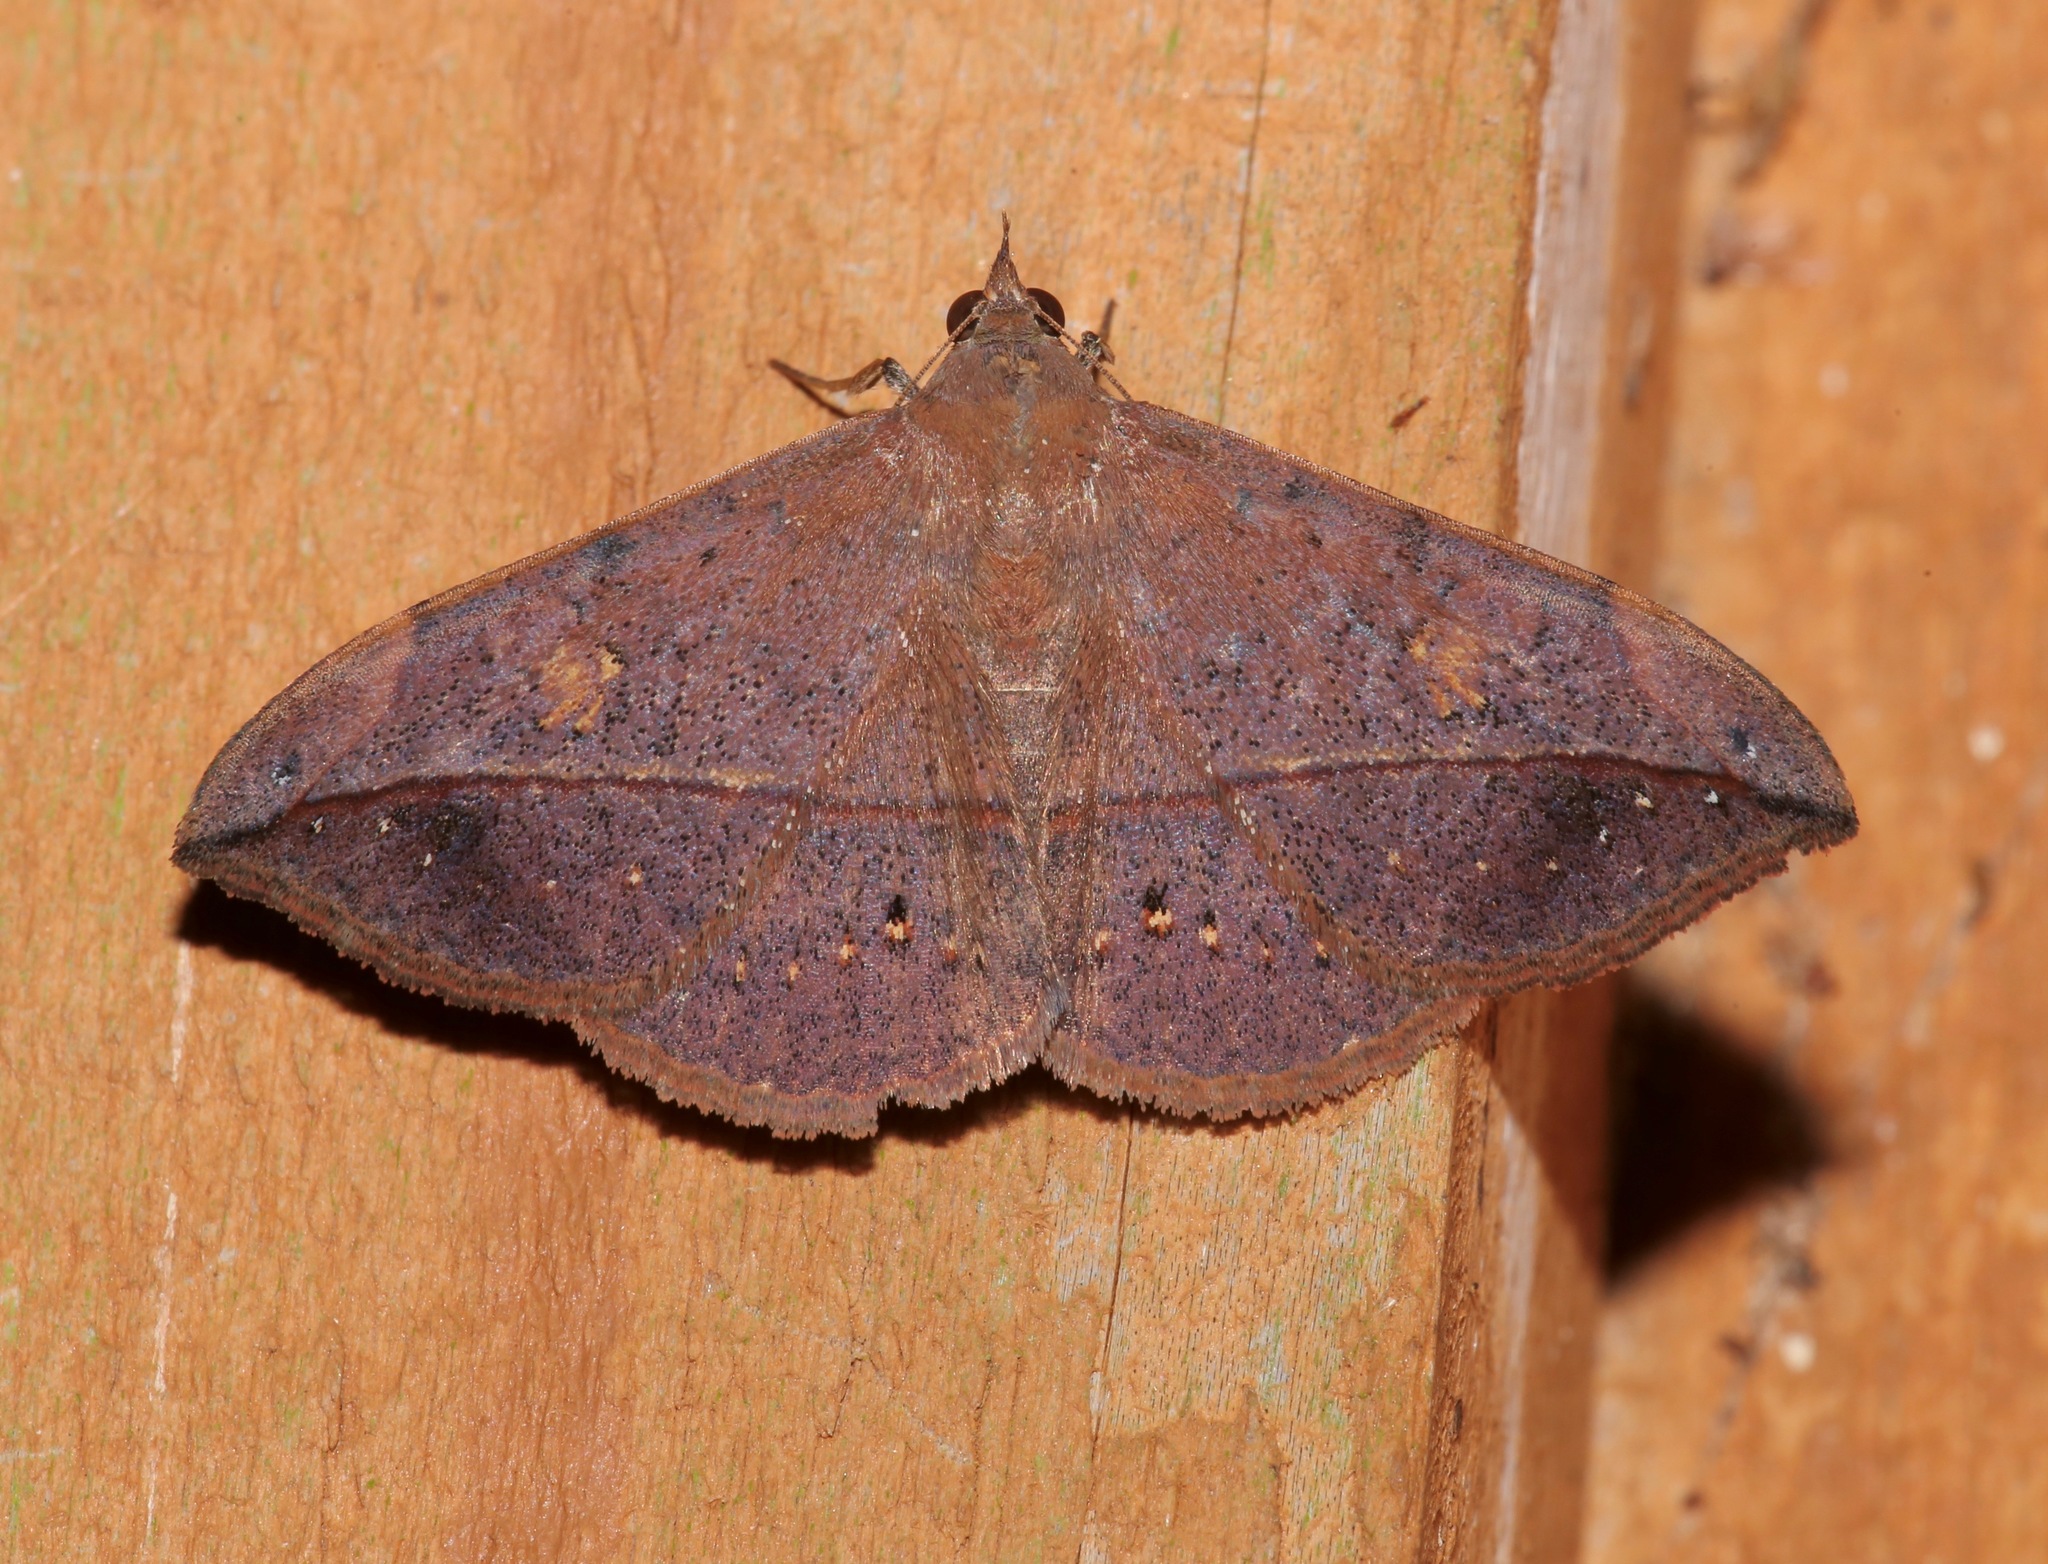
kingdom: Animalia
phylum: Arthropoda
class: Insecta
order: Lepidoptera
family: Erebidae
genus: Anticarsia
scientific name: Anticarsia gemmatalis
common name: Cutworm moth
